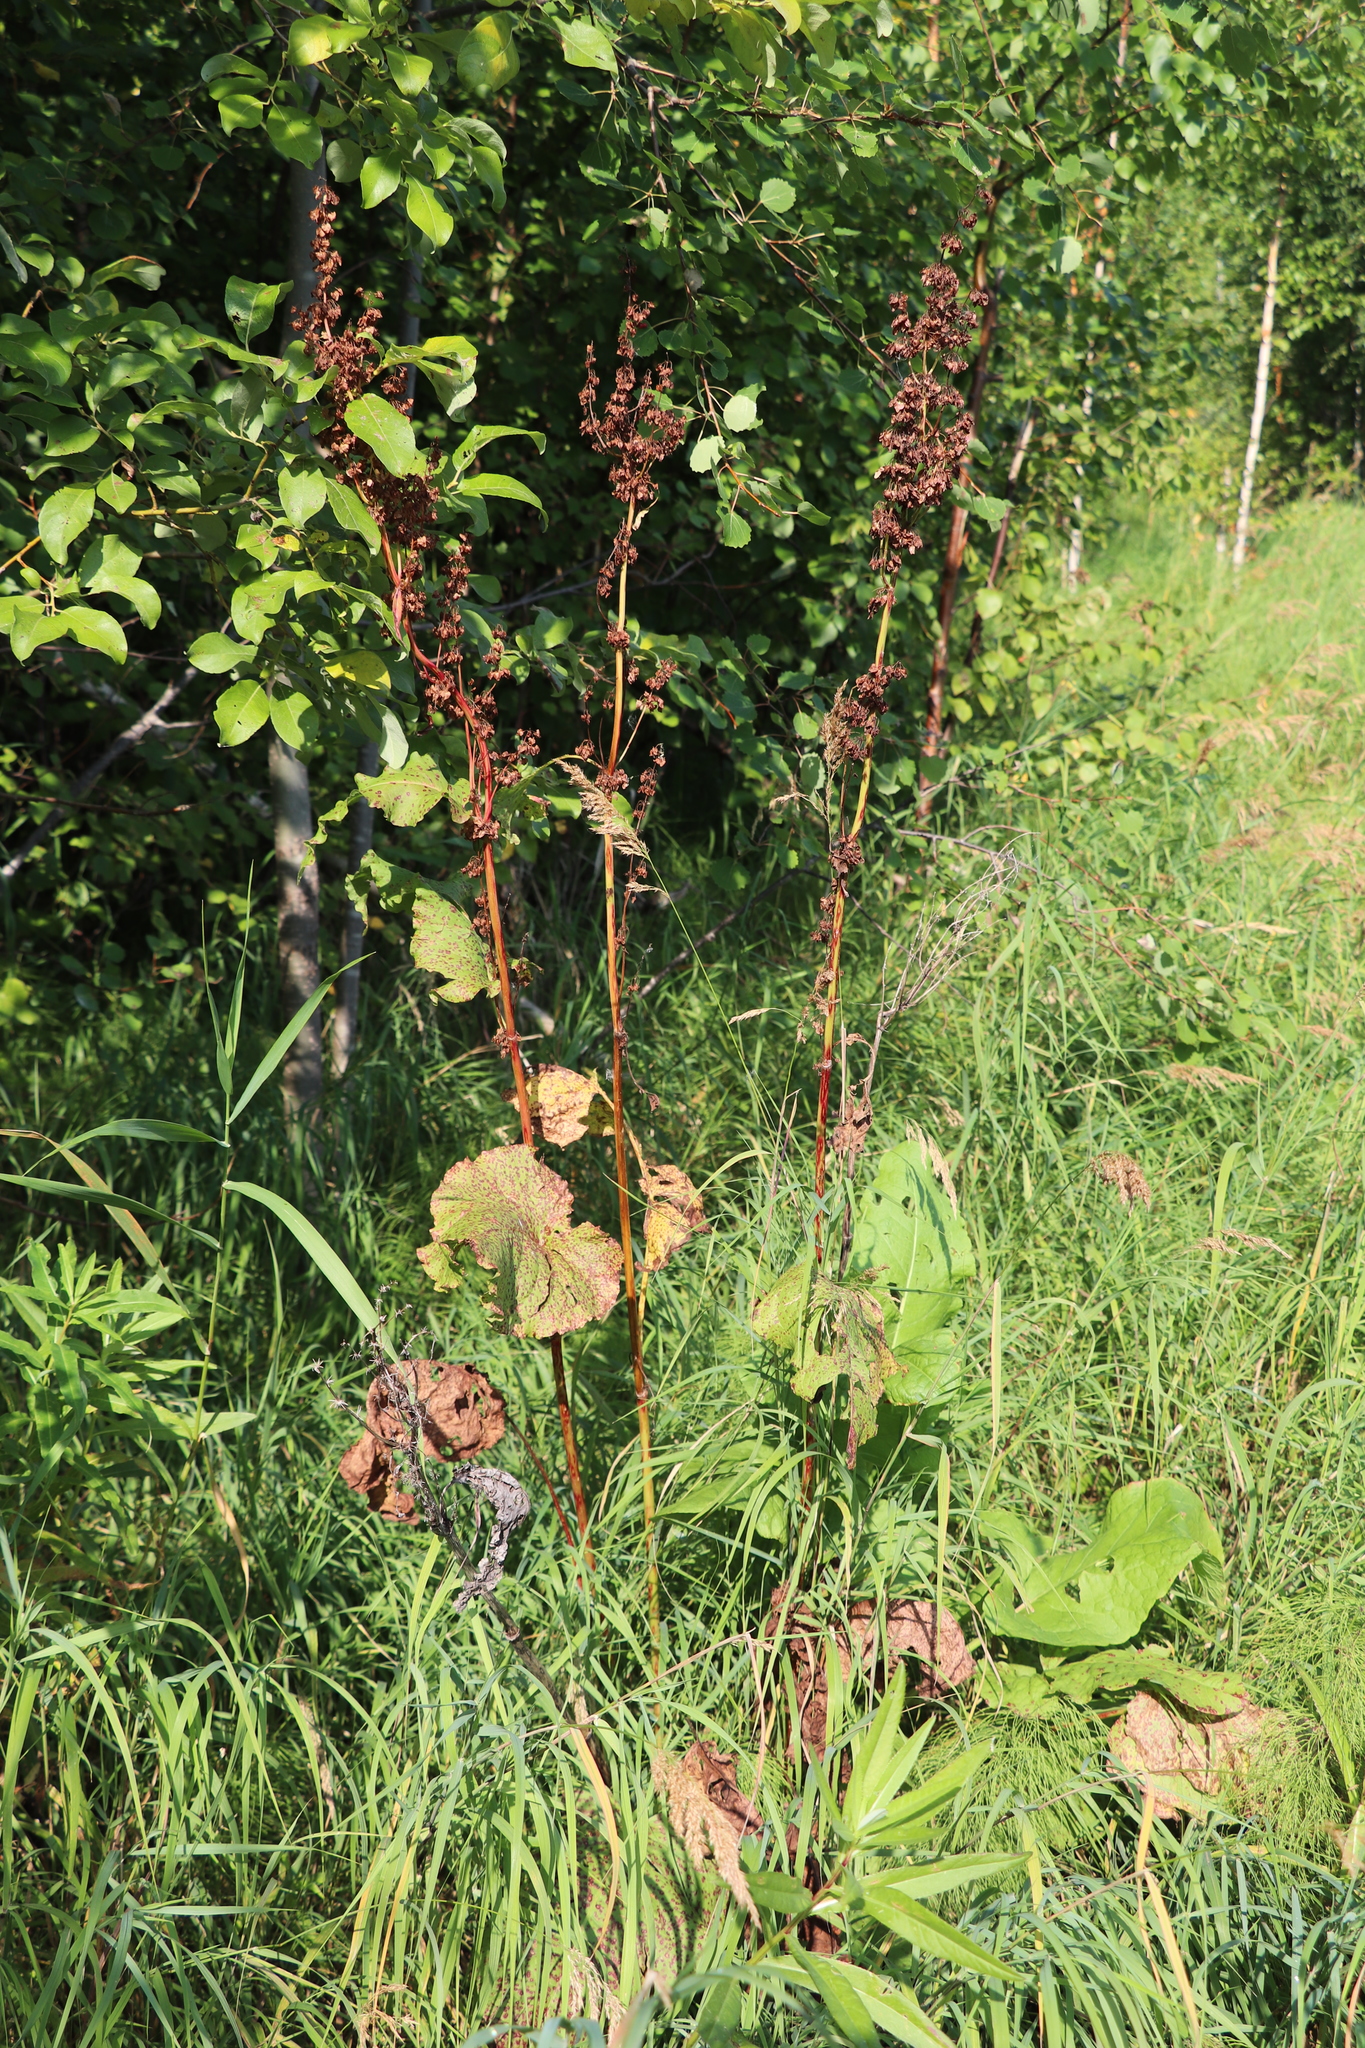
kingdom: Plantae
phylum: Tracheophyta
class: Magnoliopsida
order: Caryophyllales
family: Polygonaceae
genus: Rumex
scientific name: Rumex confertus
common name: Russian dock
